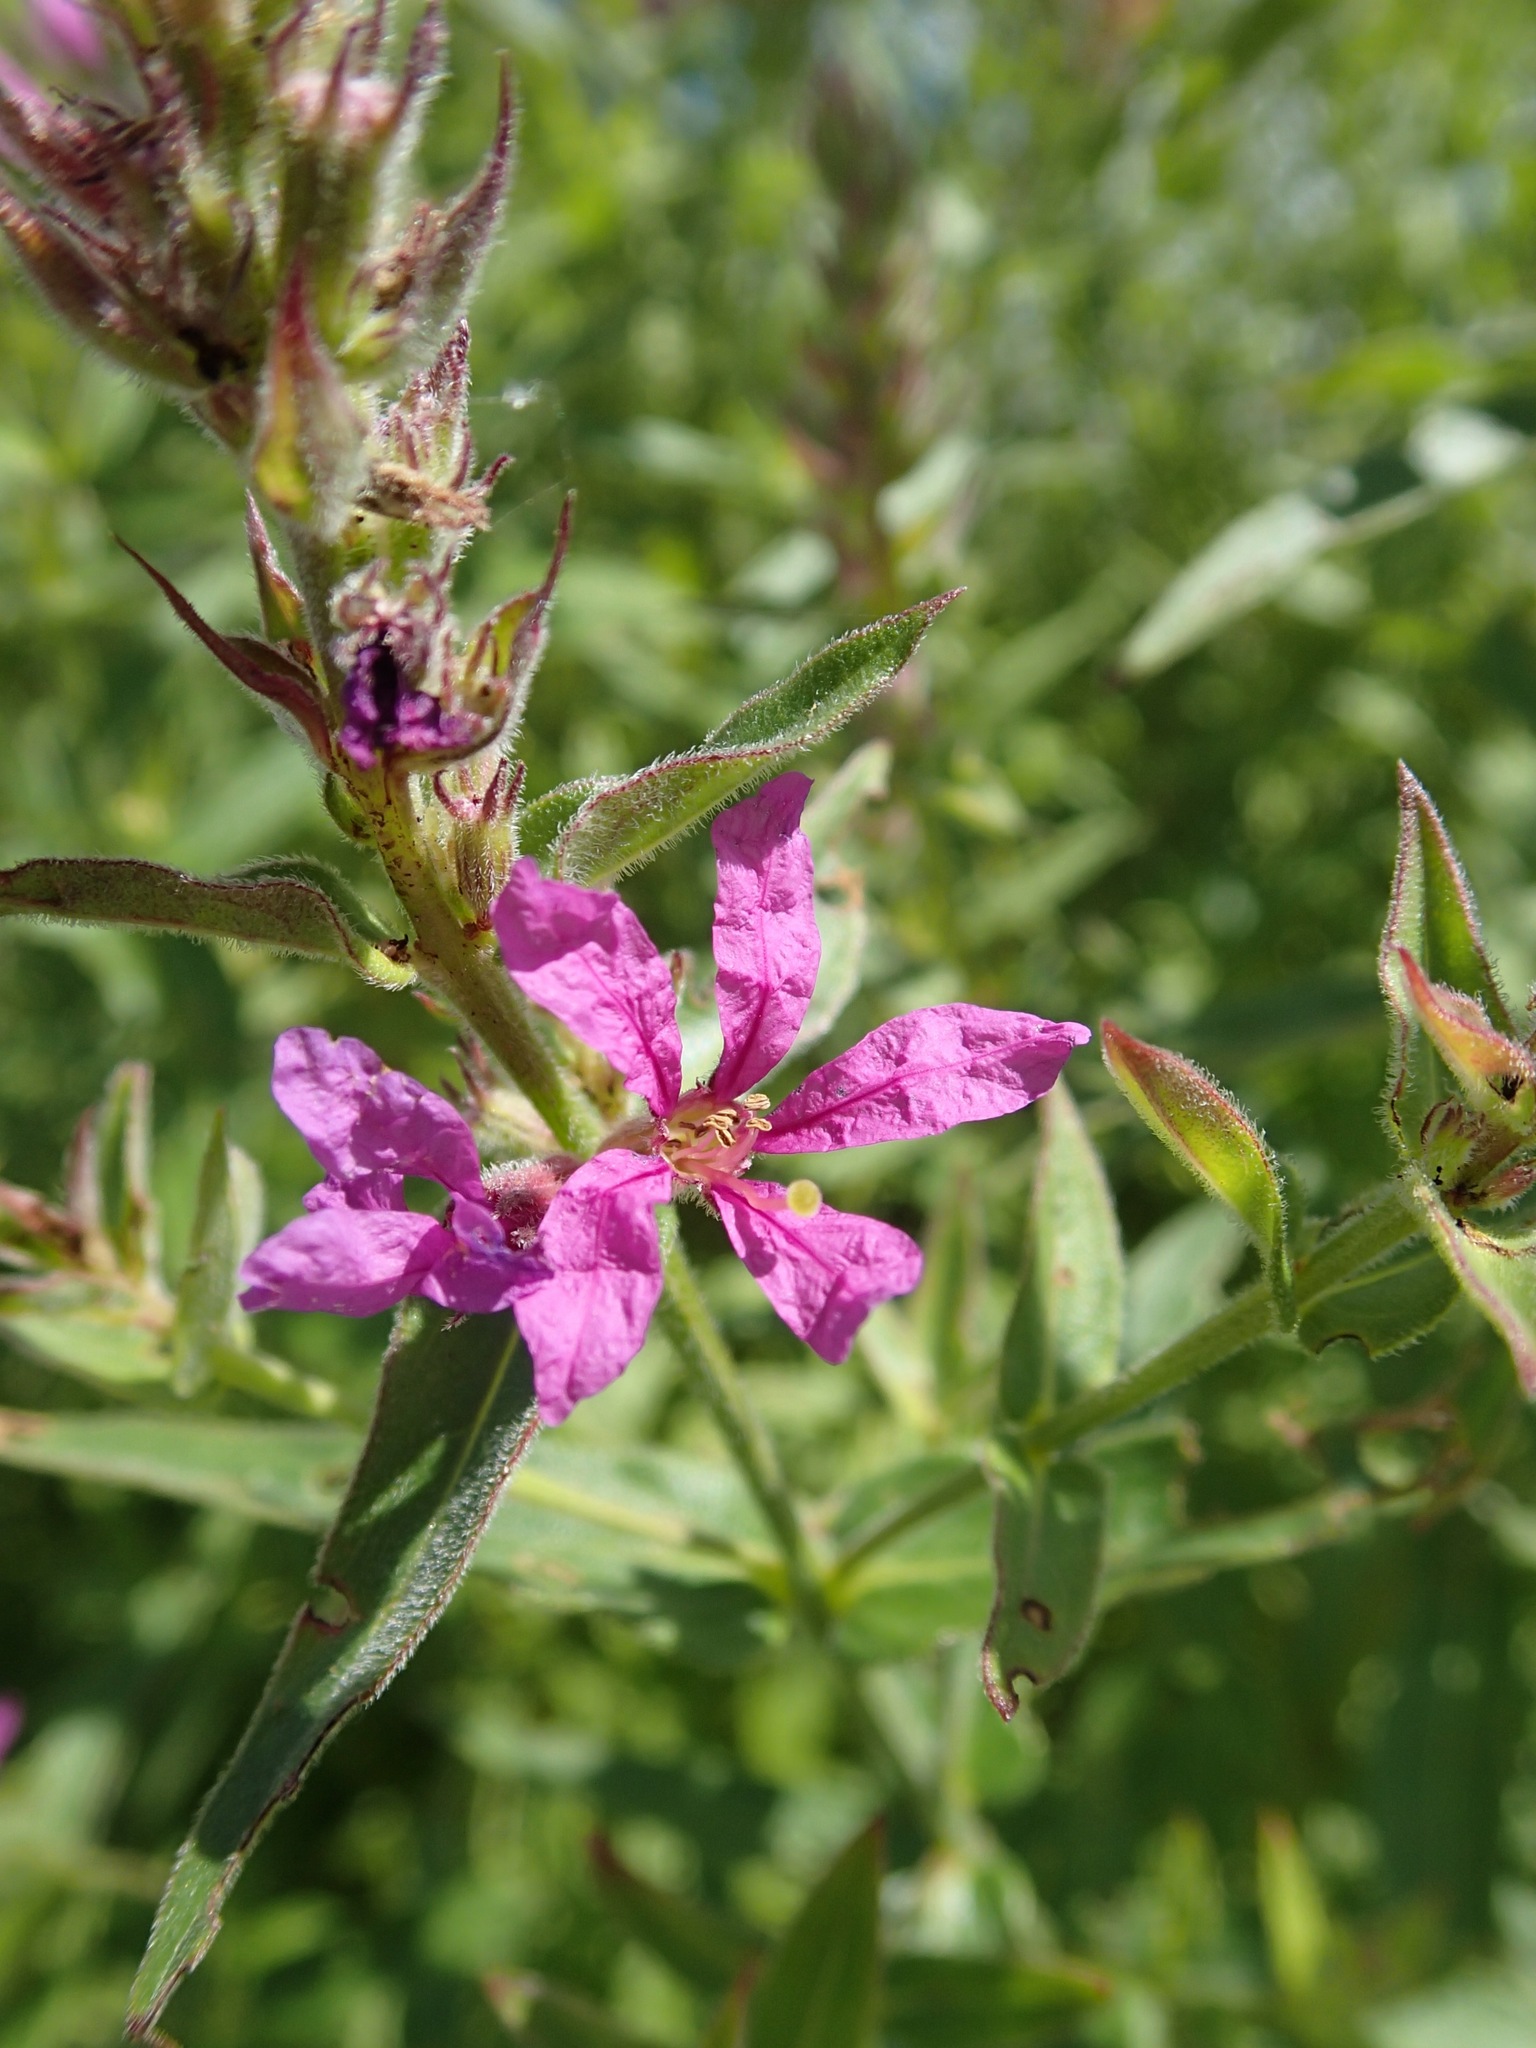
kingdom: Plantae
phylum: Tracheophyta
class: Magnoliopsida
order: Myrtales
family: Lythraceae
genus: Lythrum
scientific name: Lythrum salicaria
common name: Purple loosestrife
